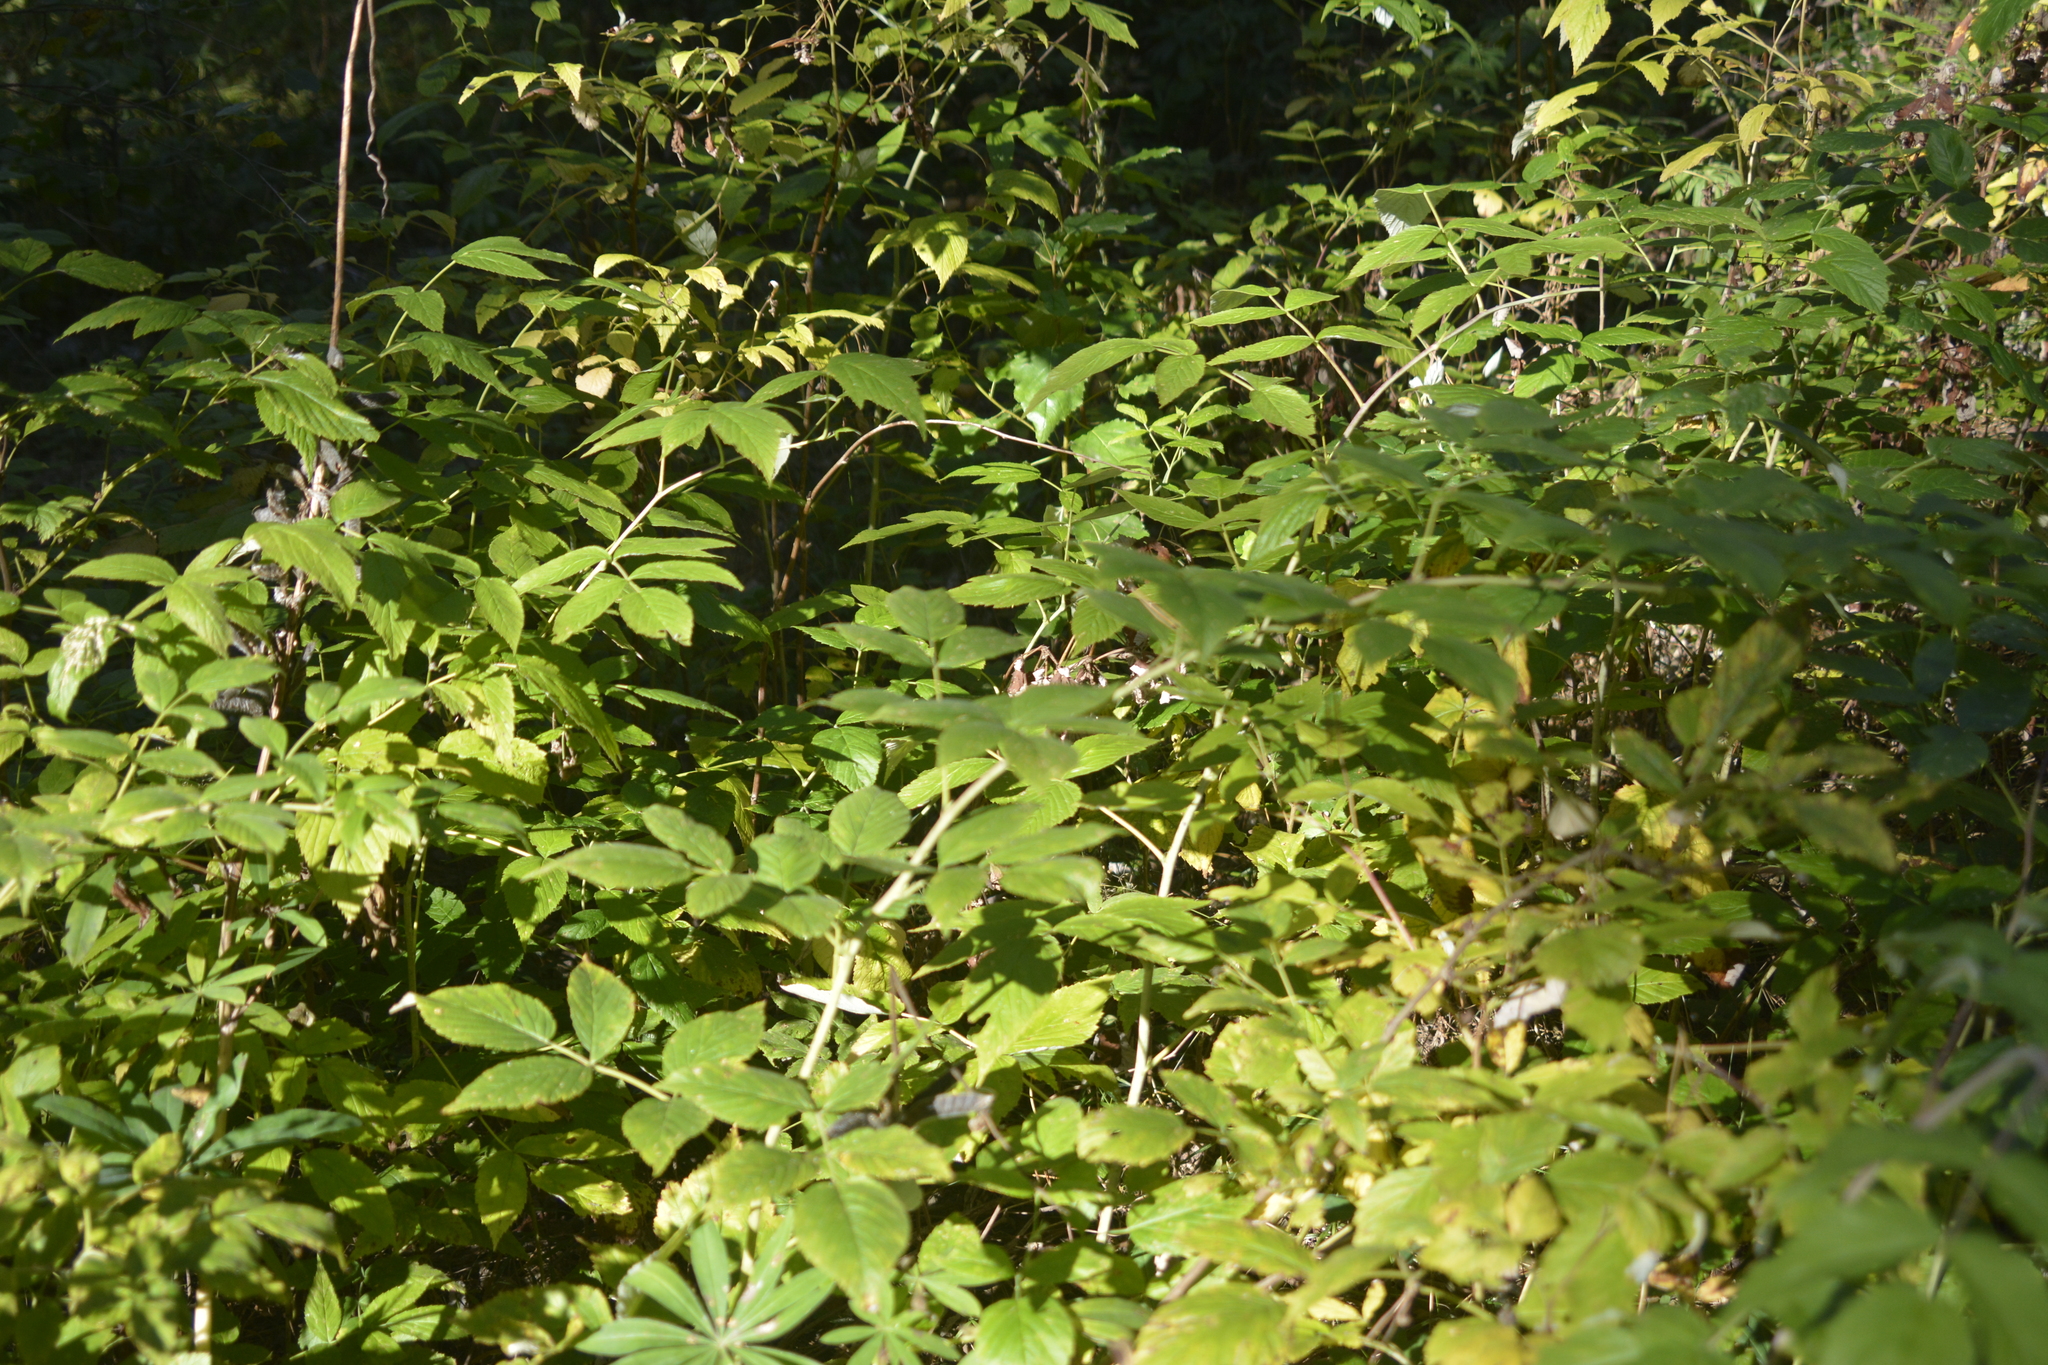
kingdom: Plantae
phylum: Tracheophyta
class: Magnoliopsida
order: Rosales
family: Rosaceae
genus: Rubus
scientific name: Rubus idaeus
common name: Raspberry
